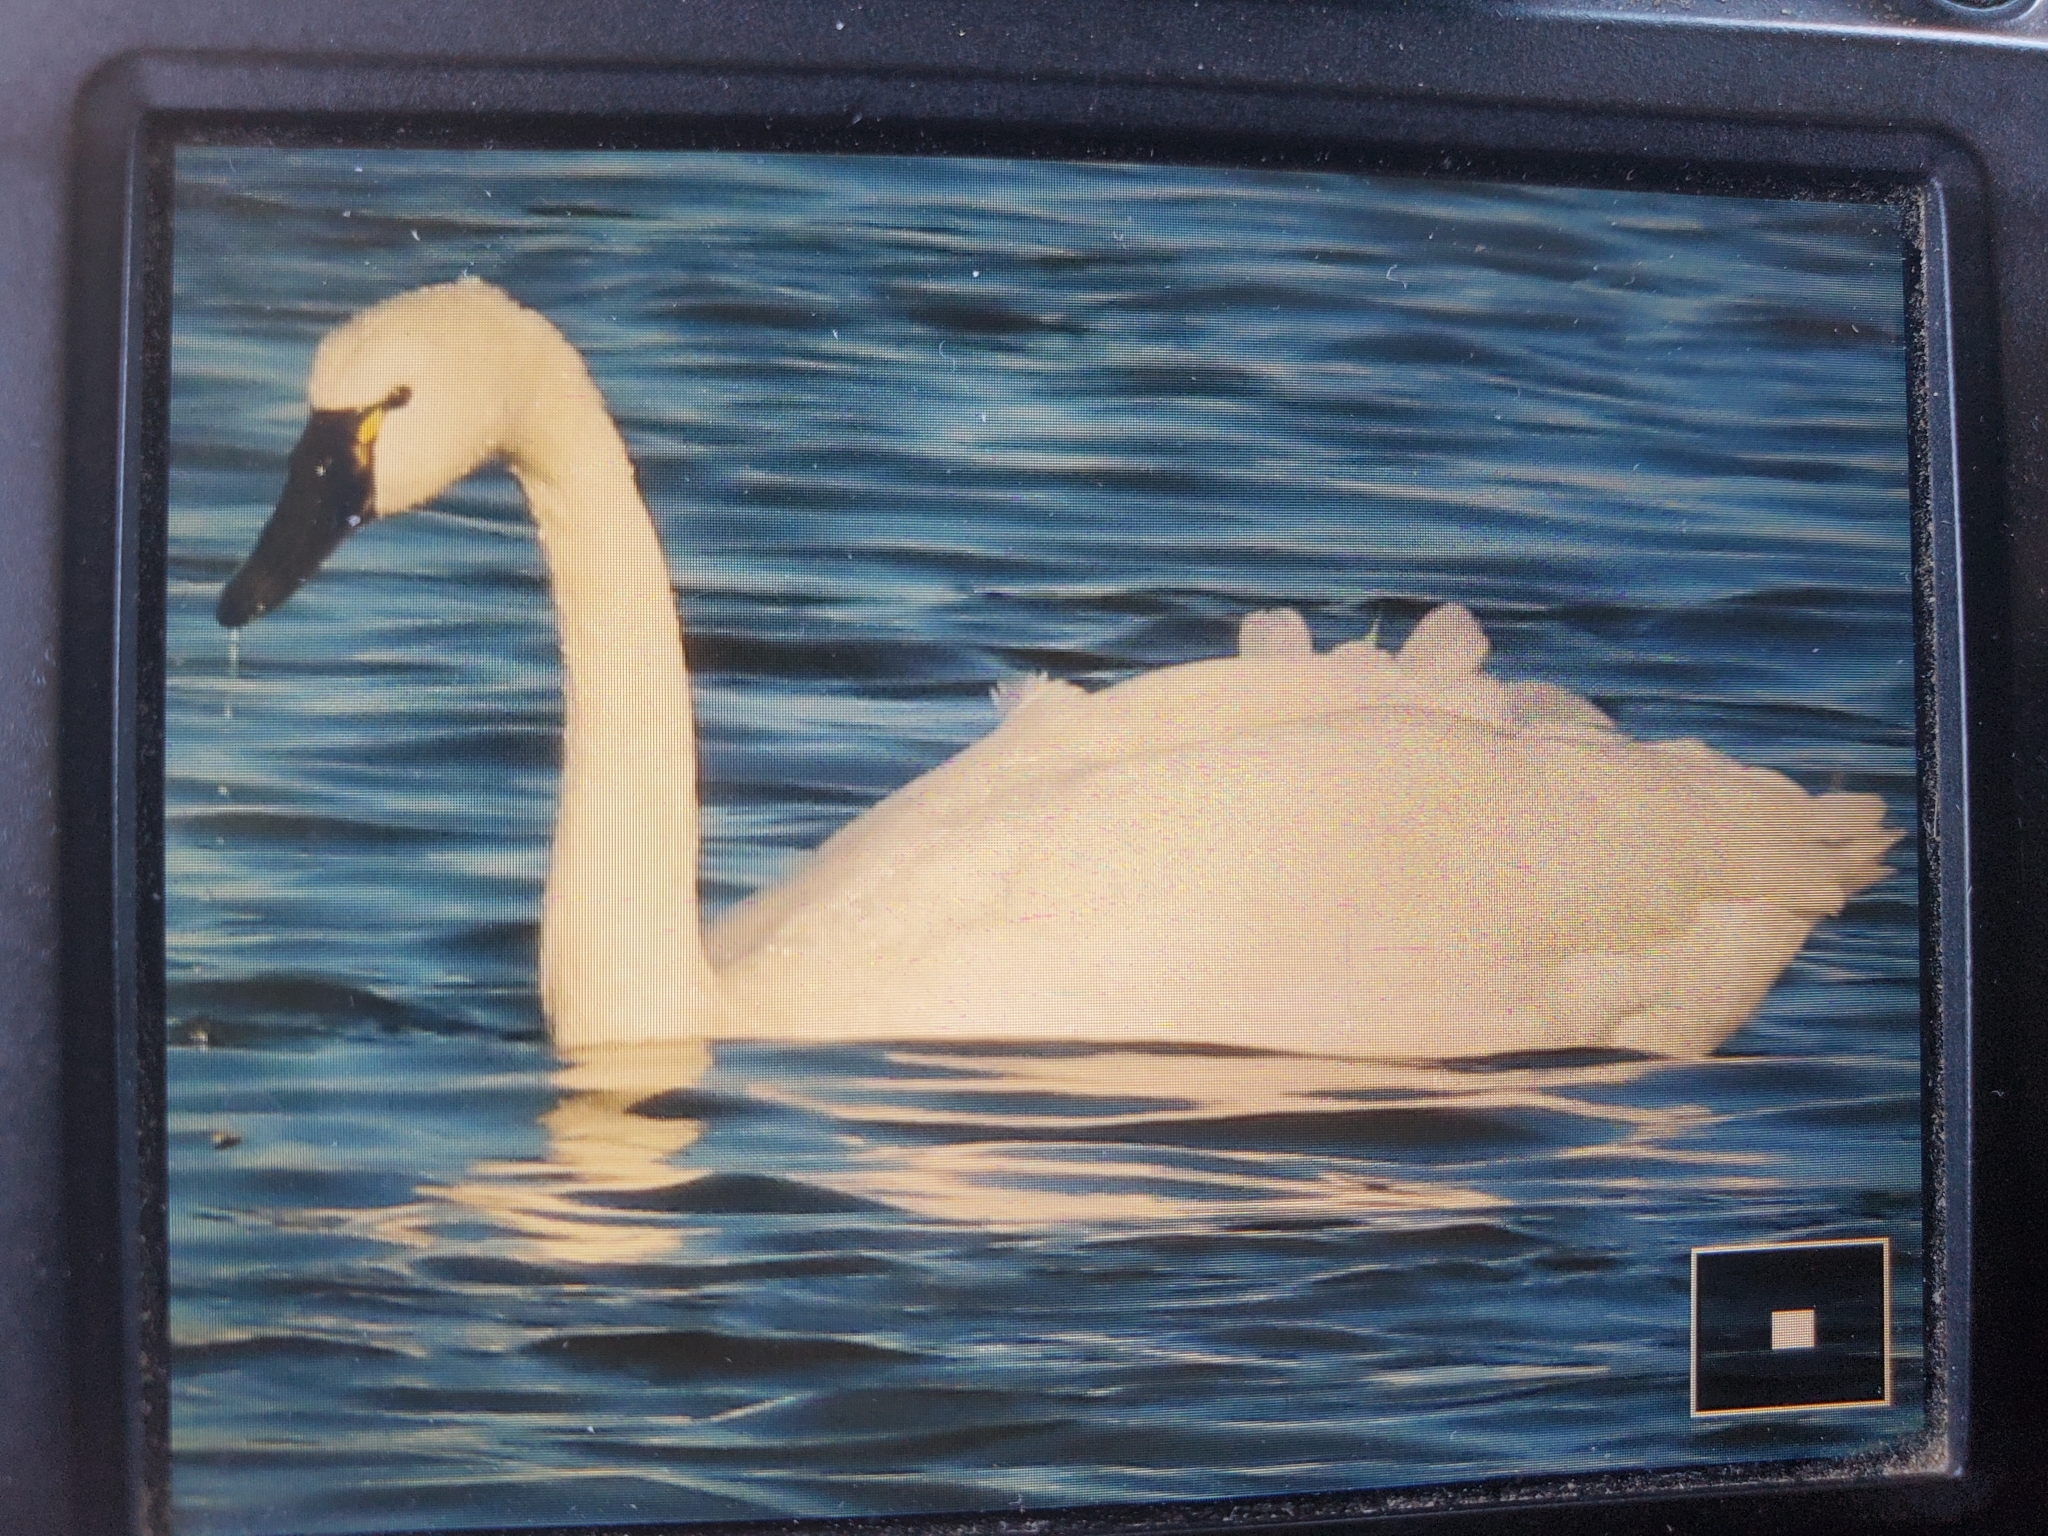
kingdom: Animalia
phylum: Chordata
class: Aves
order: Anseriformes
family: Anatidae
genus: Cygnus
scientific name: Cygnus columbianus
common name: Tundra swan
